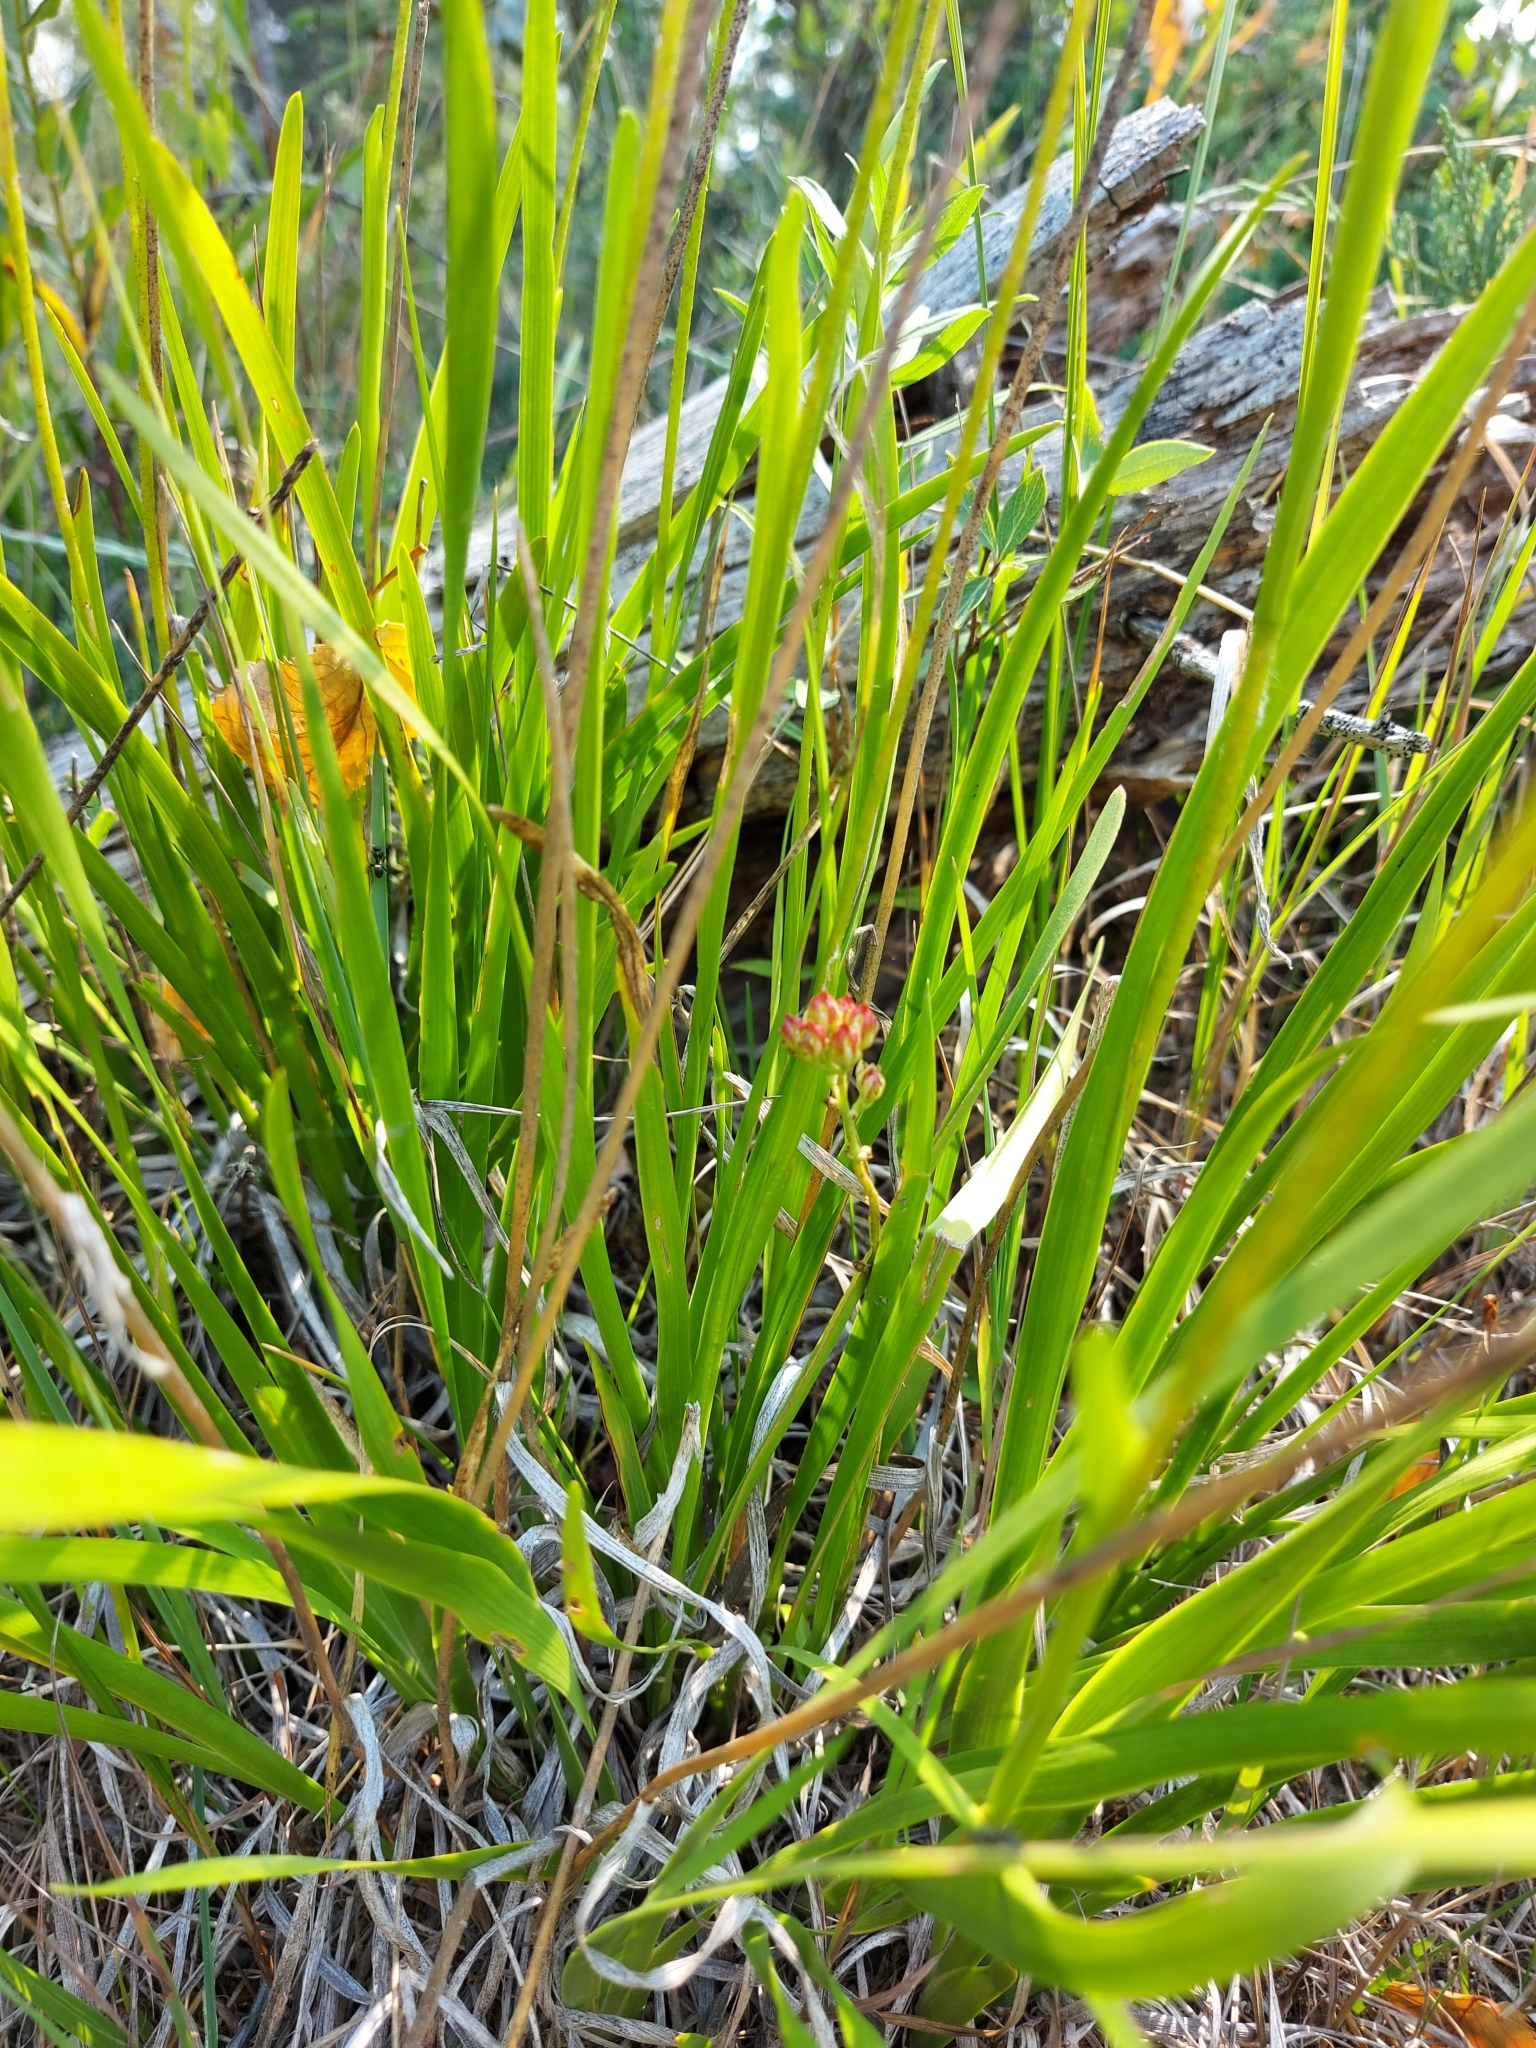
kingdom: Plantae
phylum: Tracheophyta
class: Liliopsida
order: Alismatales
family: Tofieldiaceae
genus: Triantha
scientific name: Triantha glutinosa
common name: Glutinous tofieldia
